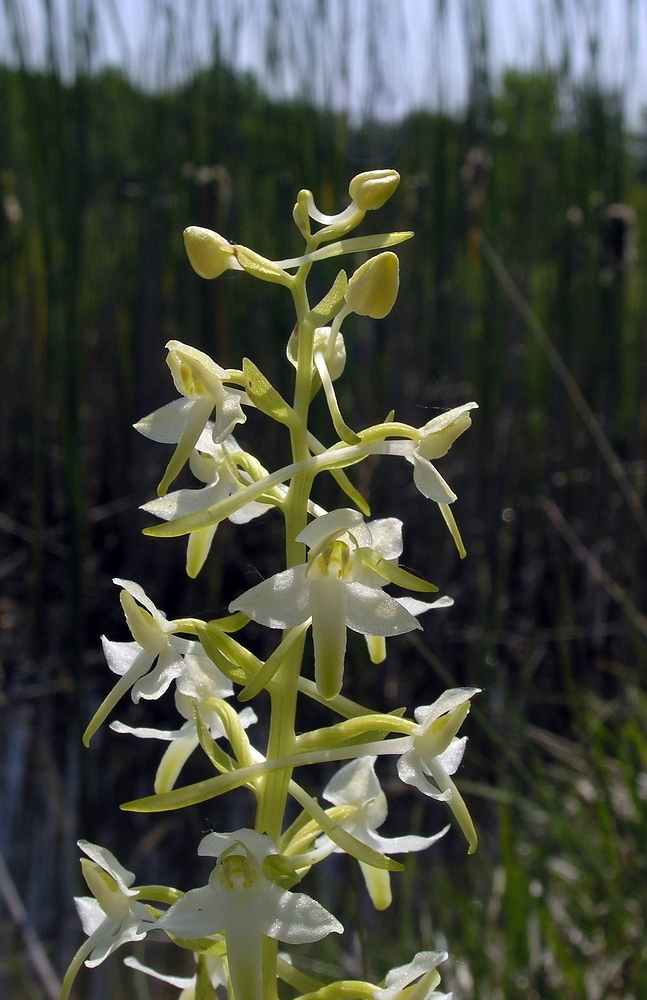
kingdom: Plantae
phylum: Tracheophyta
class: Liliopsida
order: Asparagales
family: Orchidaceae
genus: Platanthera
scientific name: Platanthera bifolia
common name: Lesser butterfly-orchid
